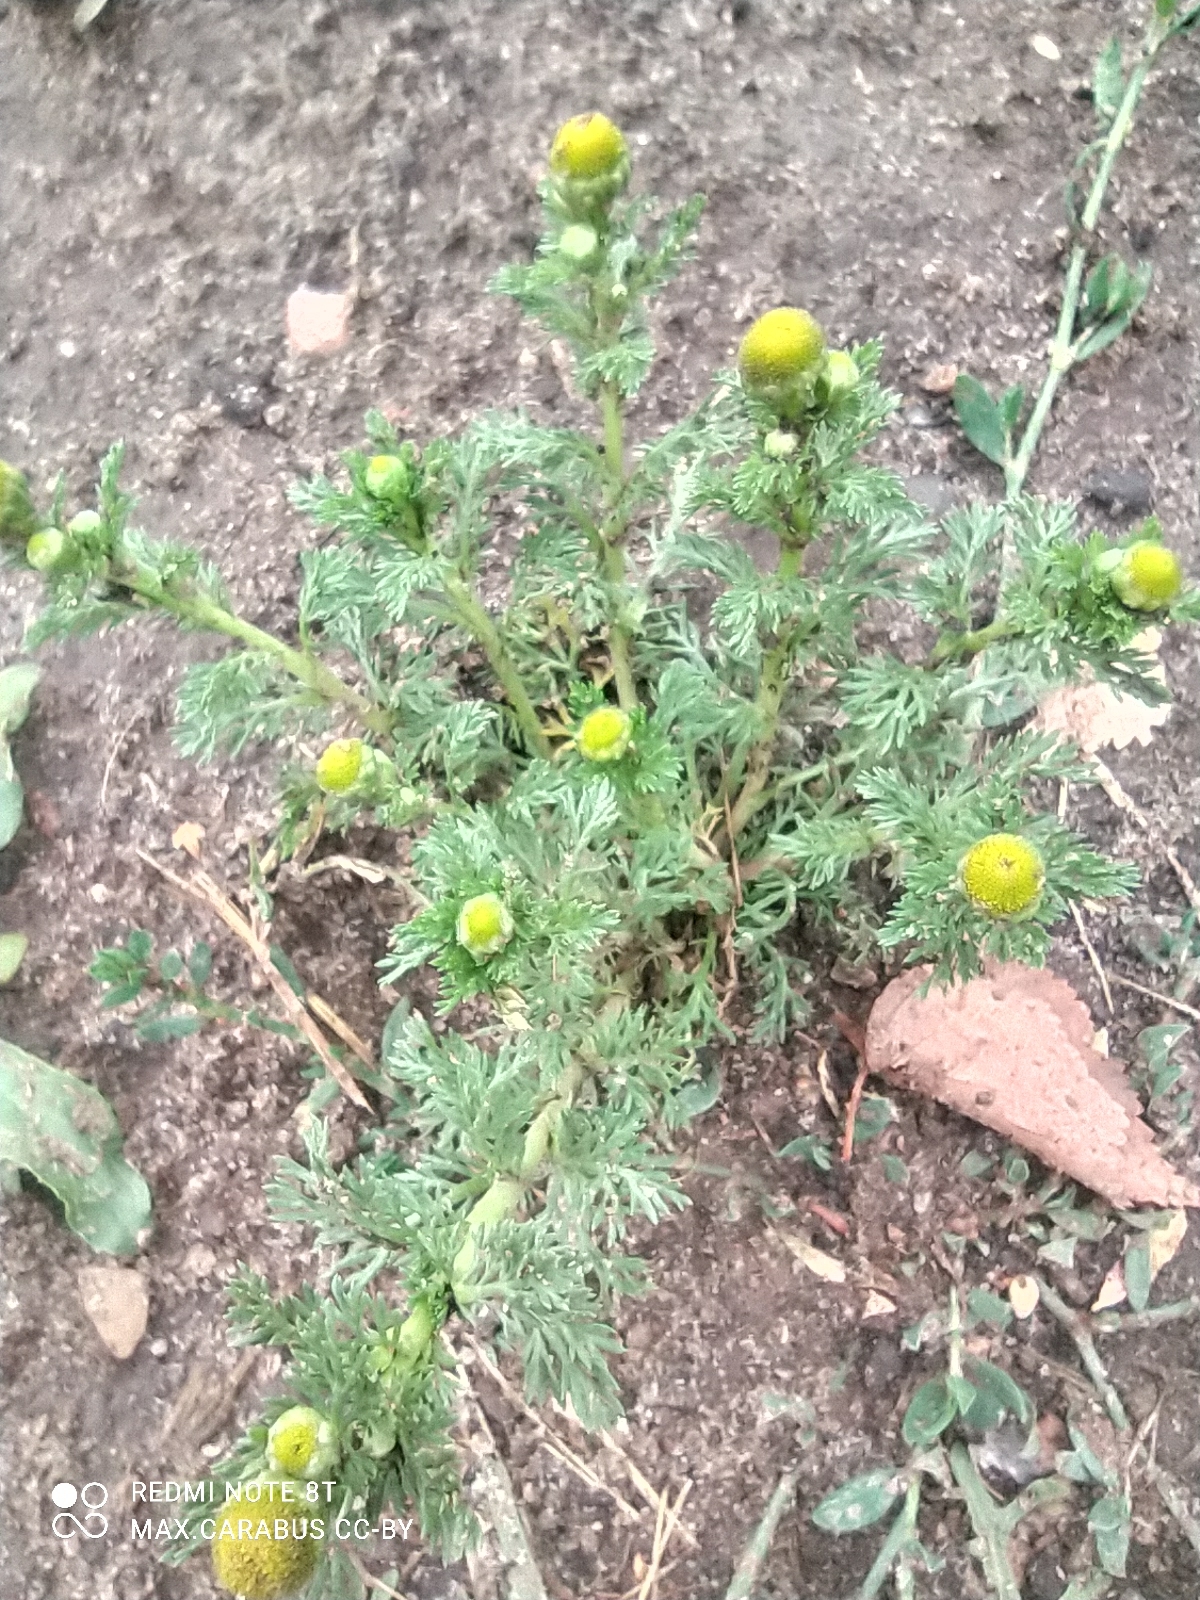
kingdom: Plantae
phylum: Tracheophyta
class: Magnoliopsida
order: Asterales
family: Asteraceae
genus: Matricaria
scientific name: Matricaria discoidea
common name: Disc mayweed
